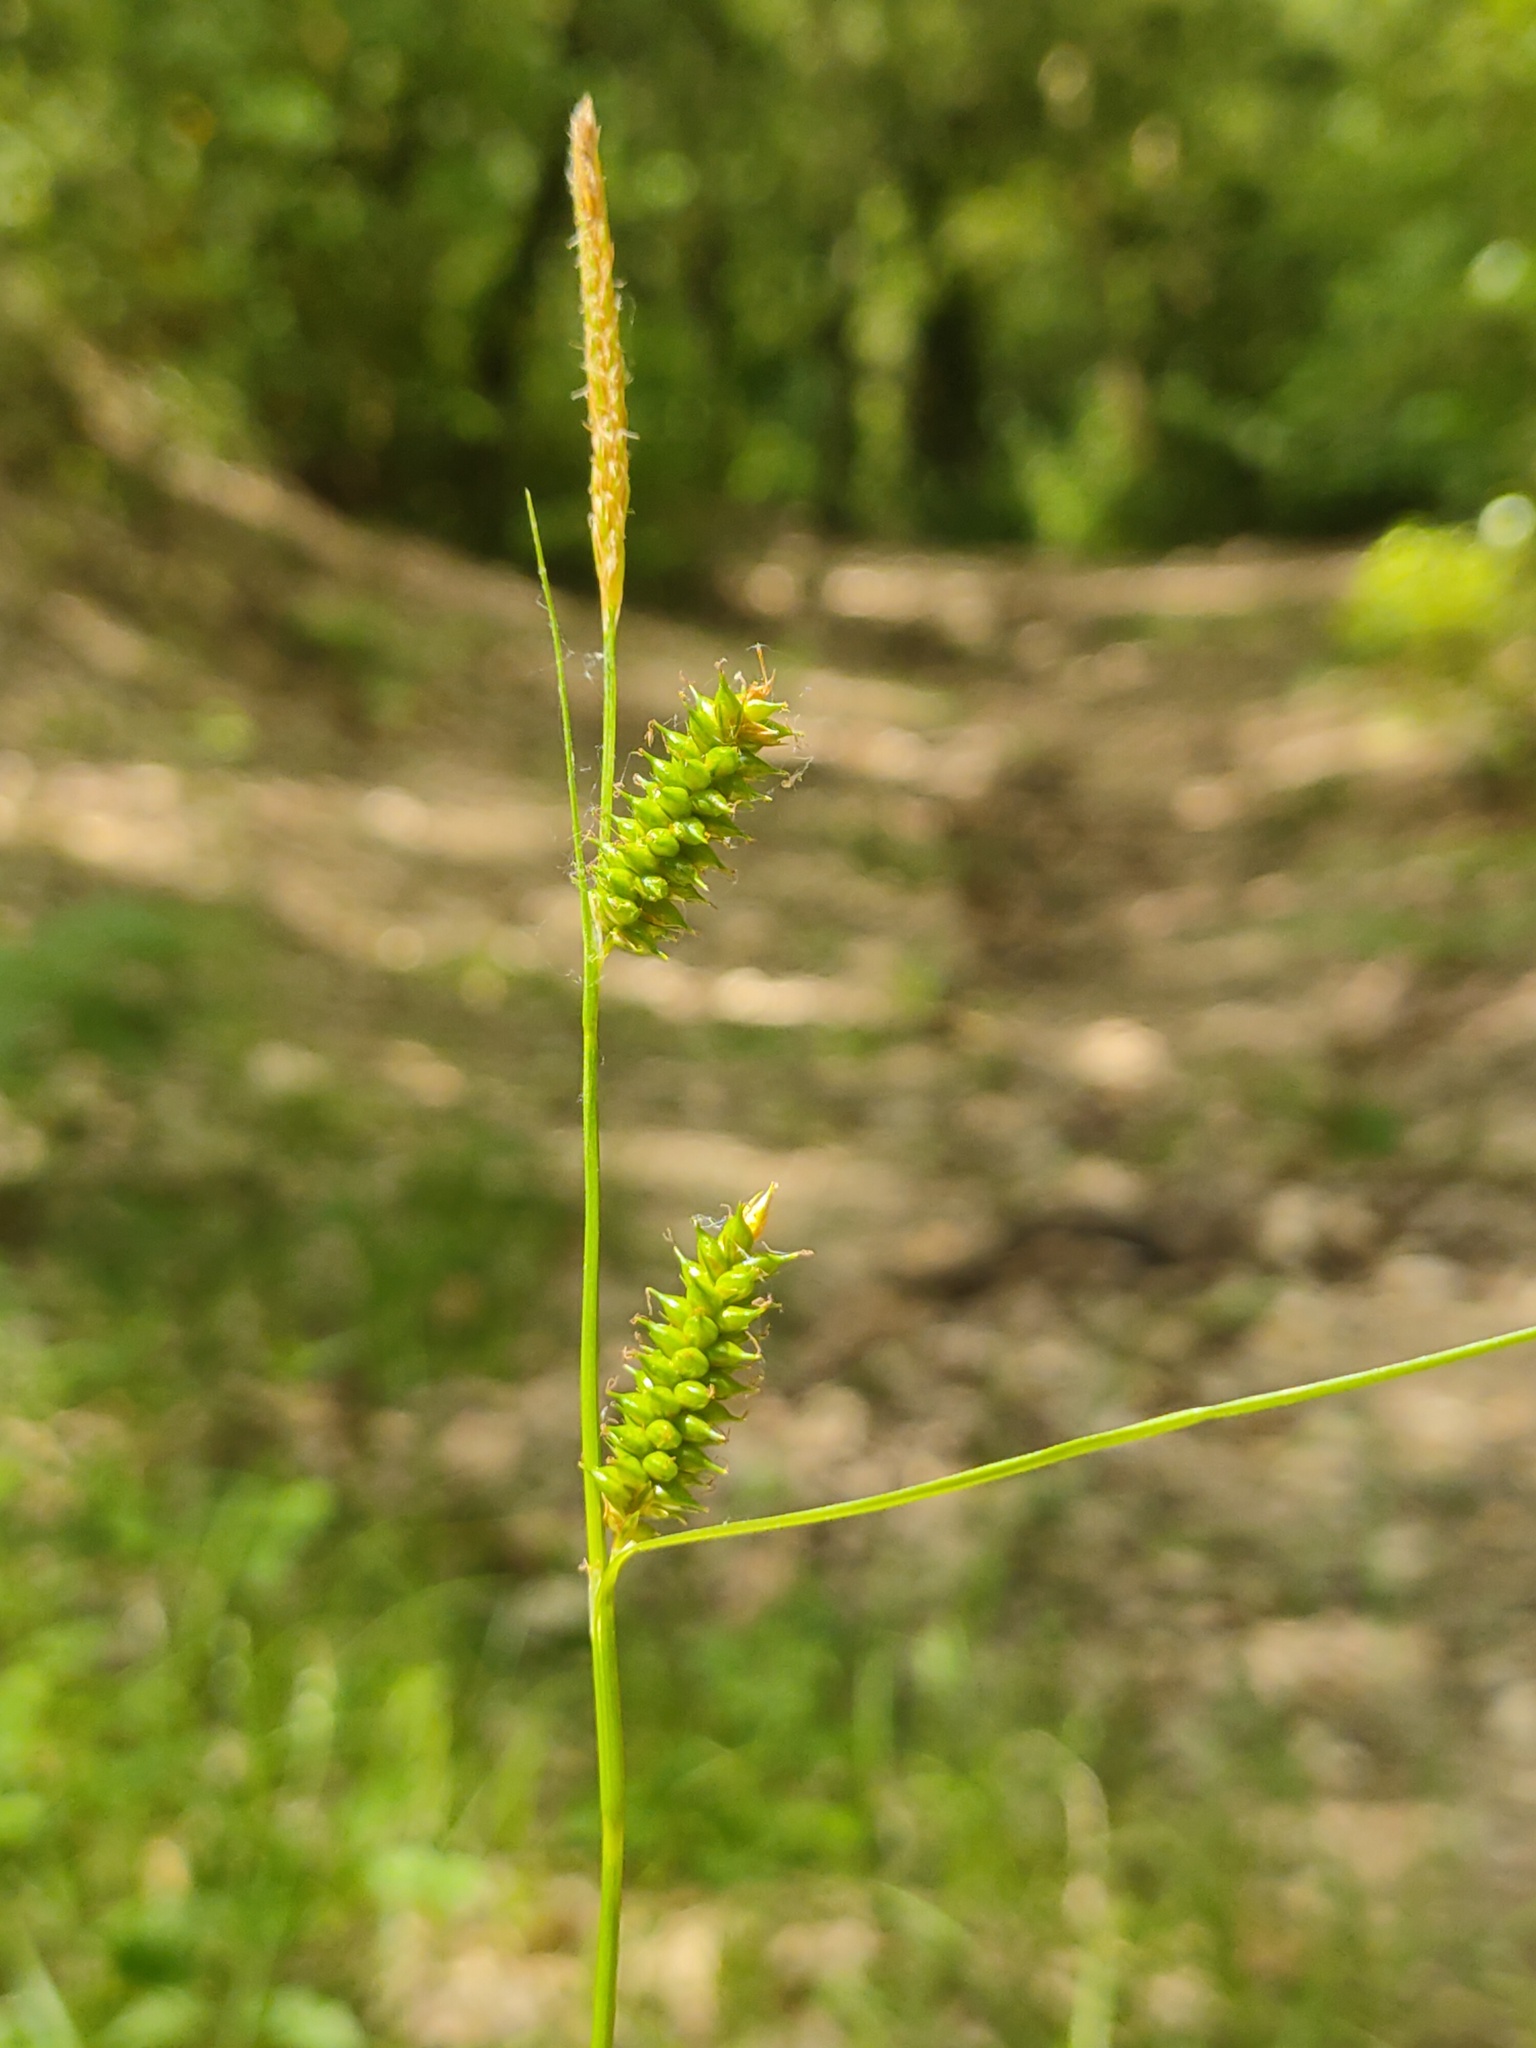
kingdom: Plantae
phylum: Tracheophyta
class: Liliopsida
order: Poales
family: Cyperaceae
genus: Carex
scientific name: Carex punctata
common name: Dotted sedge
